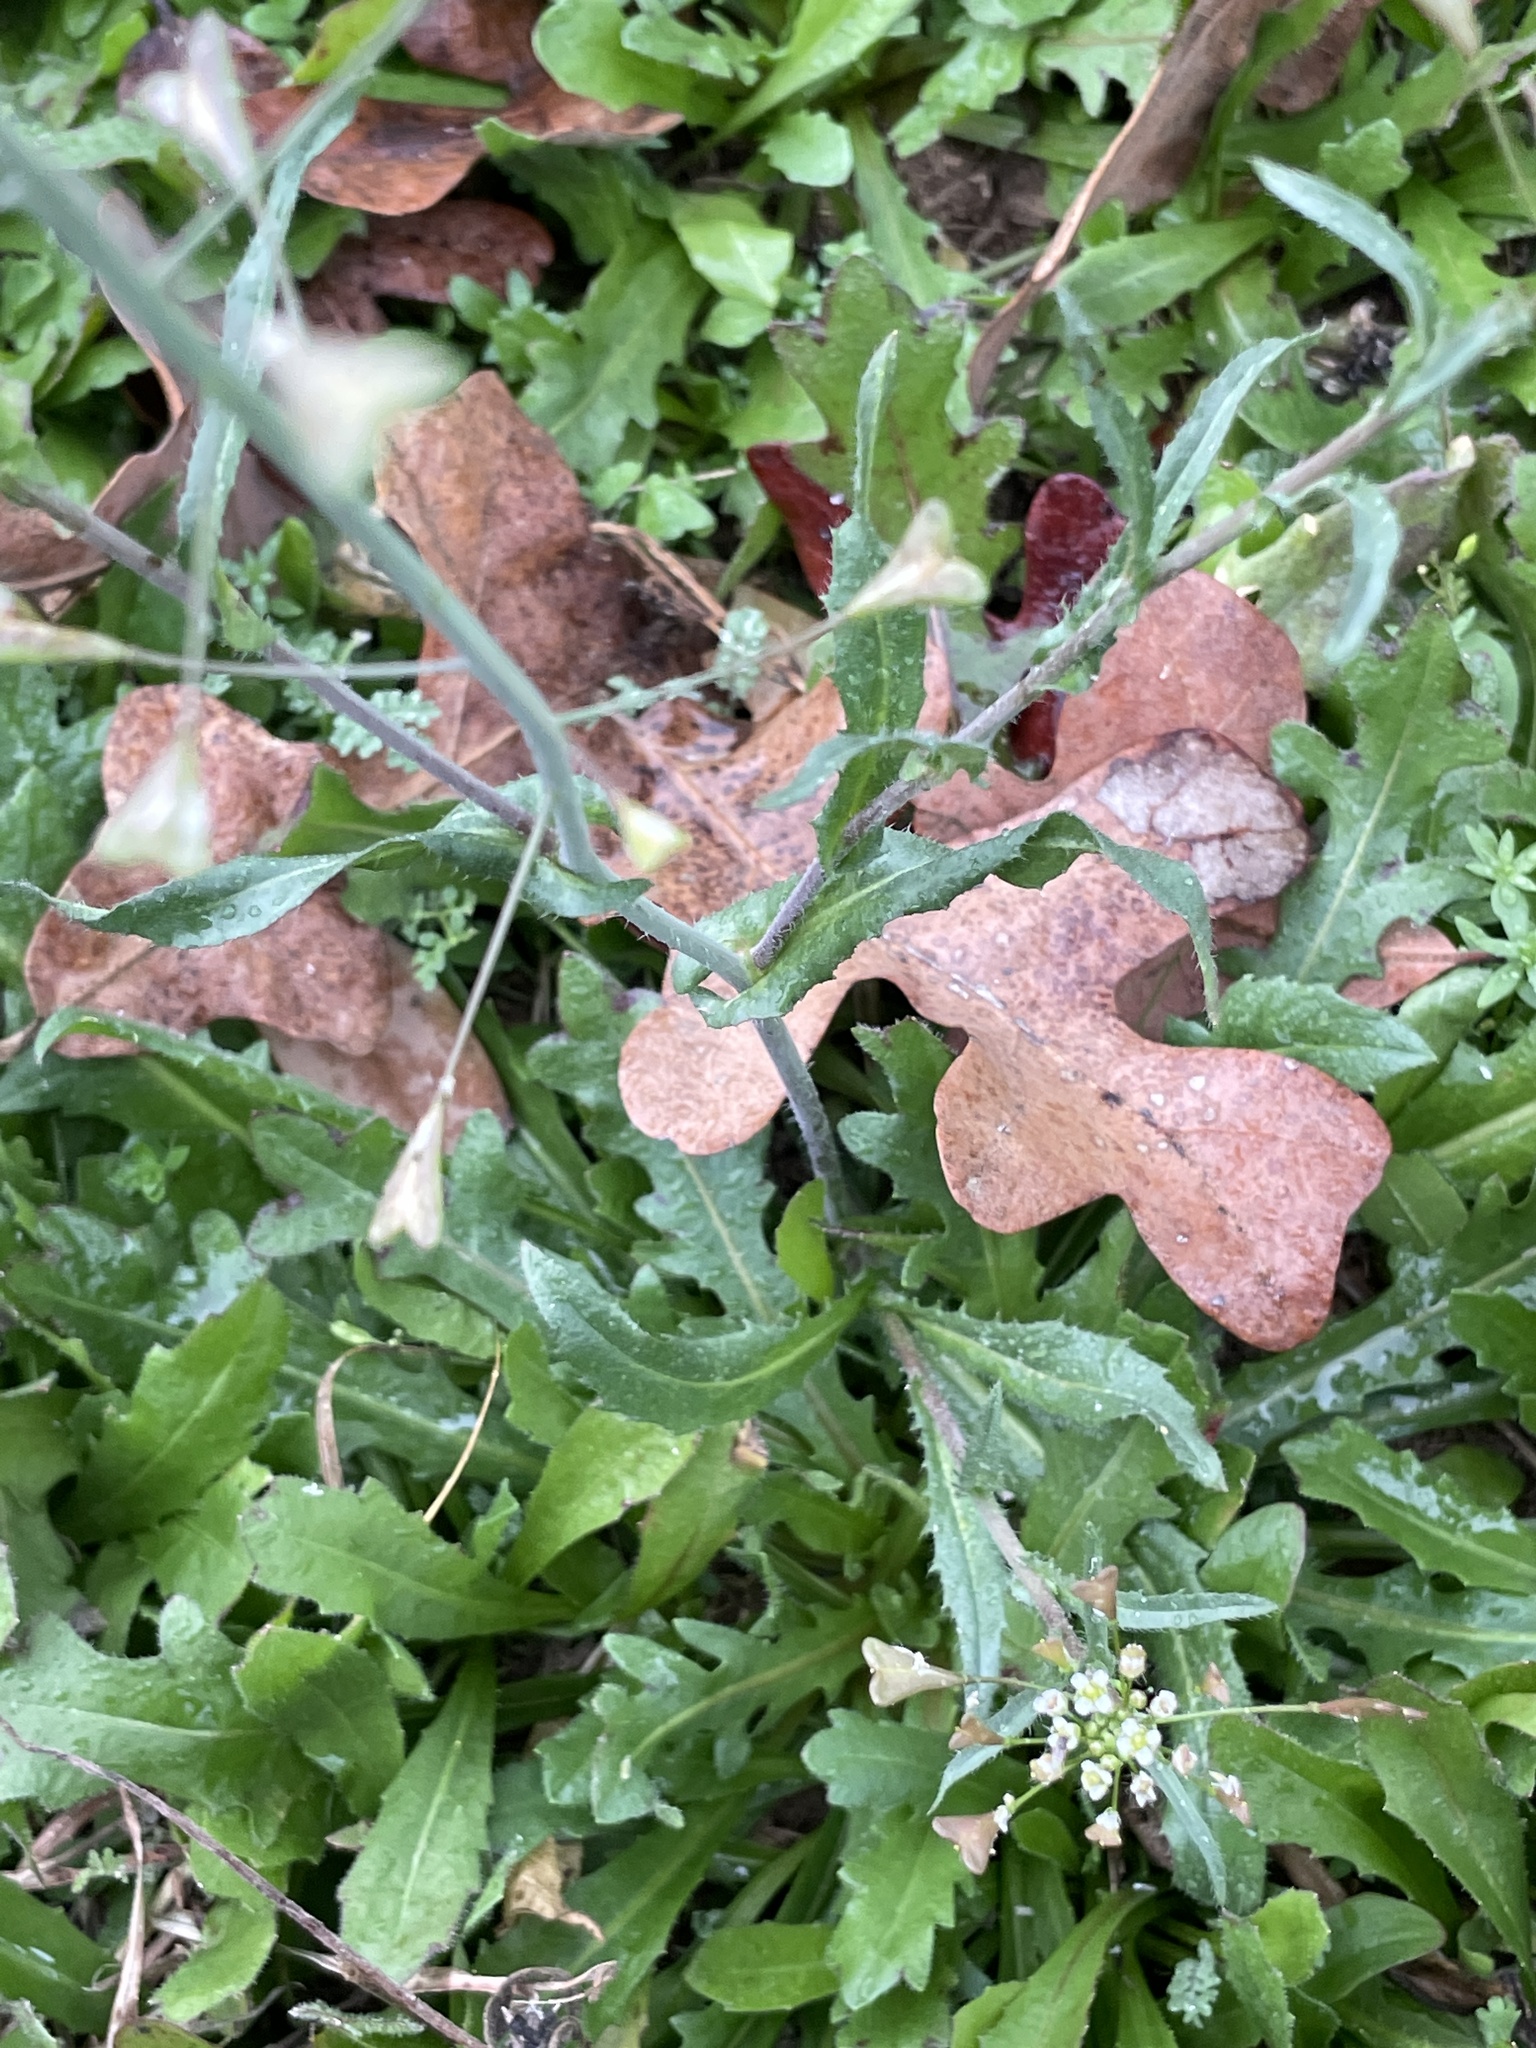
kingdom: Plantae
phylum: Tracheophyta
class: Magnoliopsida
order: Brassicales
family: Brassicaceae
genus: Capsella
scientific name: Capsella bursa-pastoris
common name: Shepherd's purse
